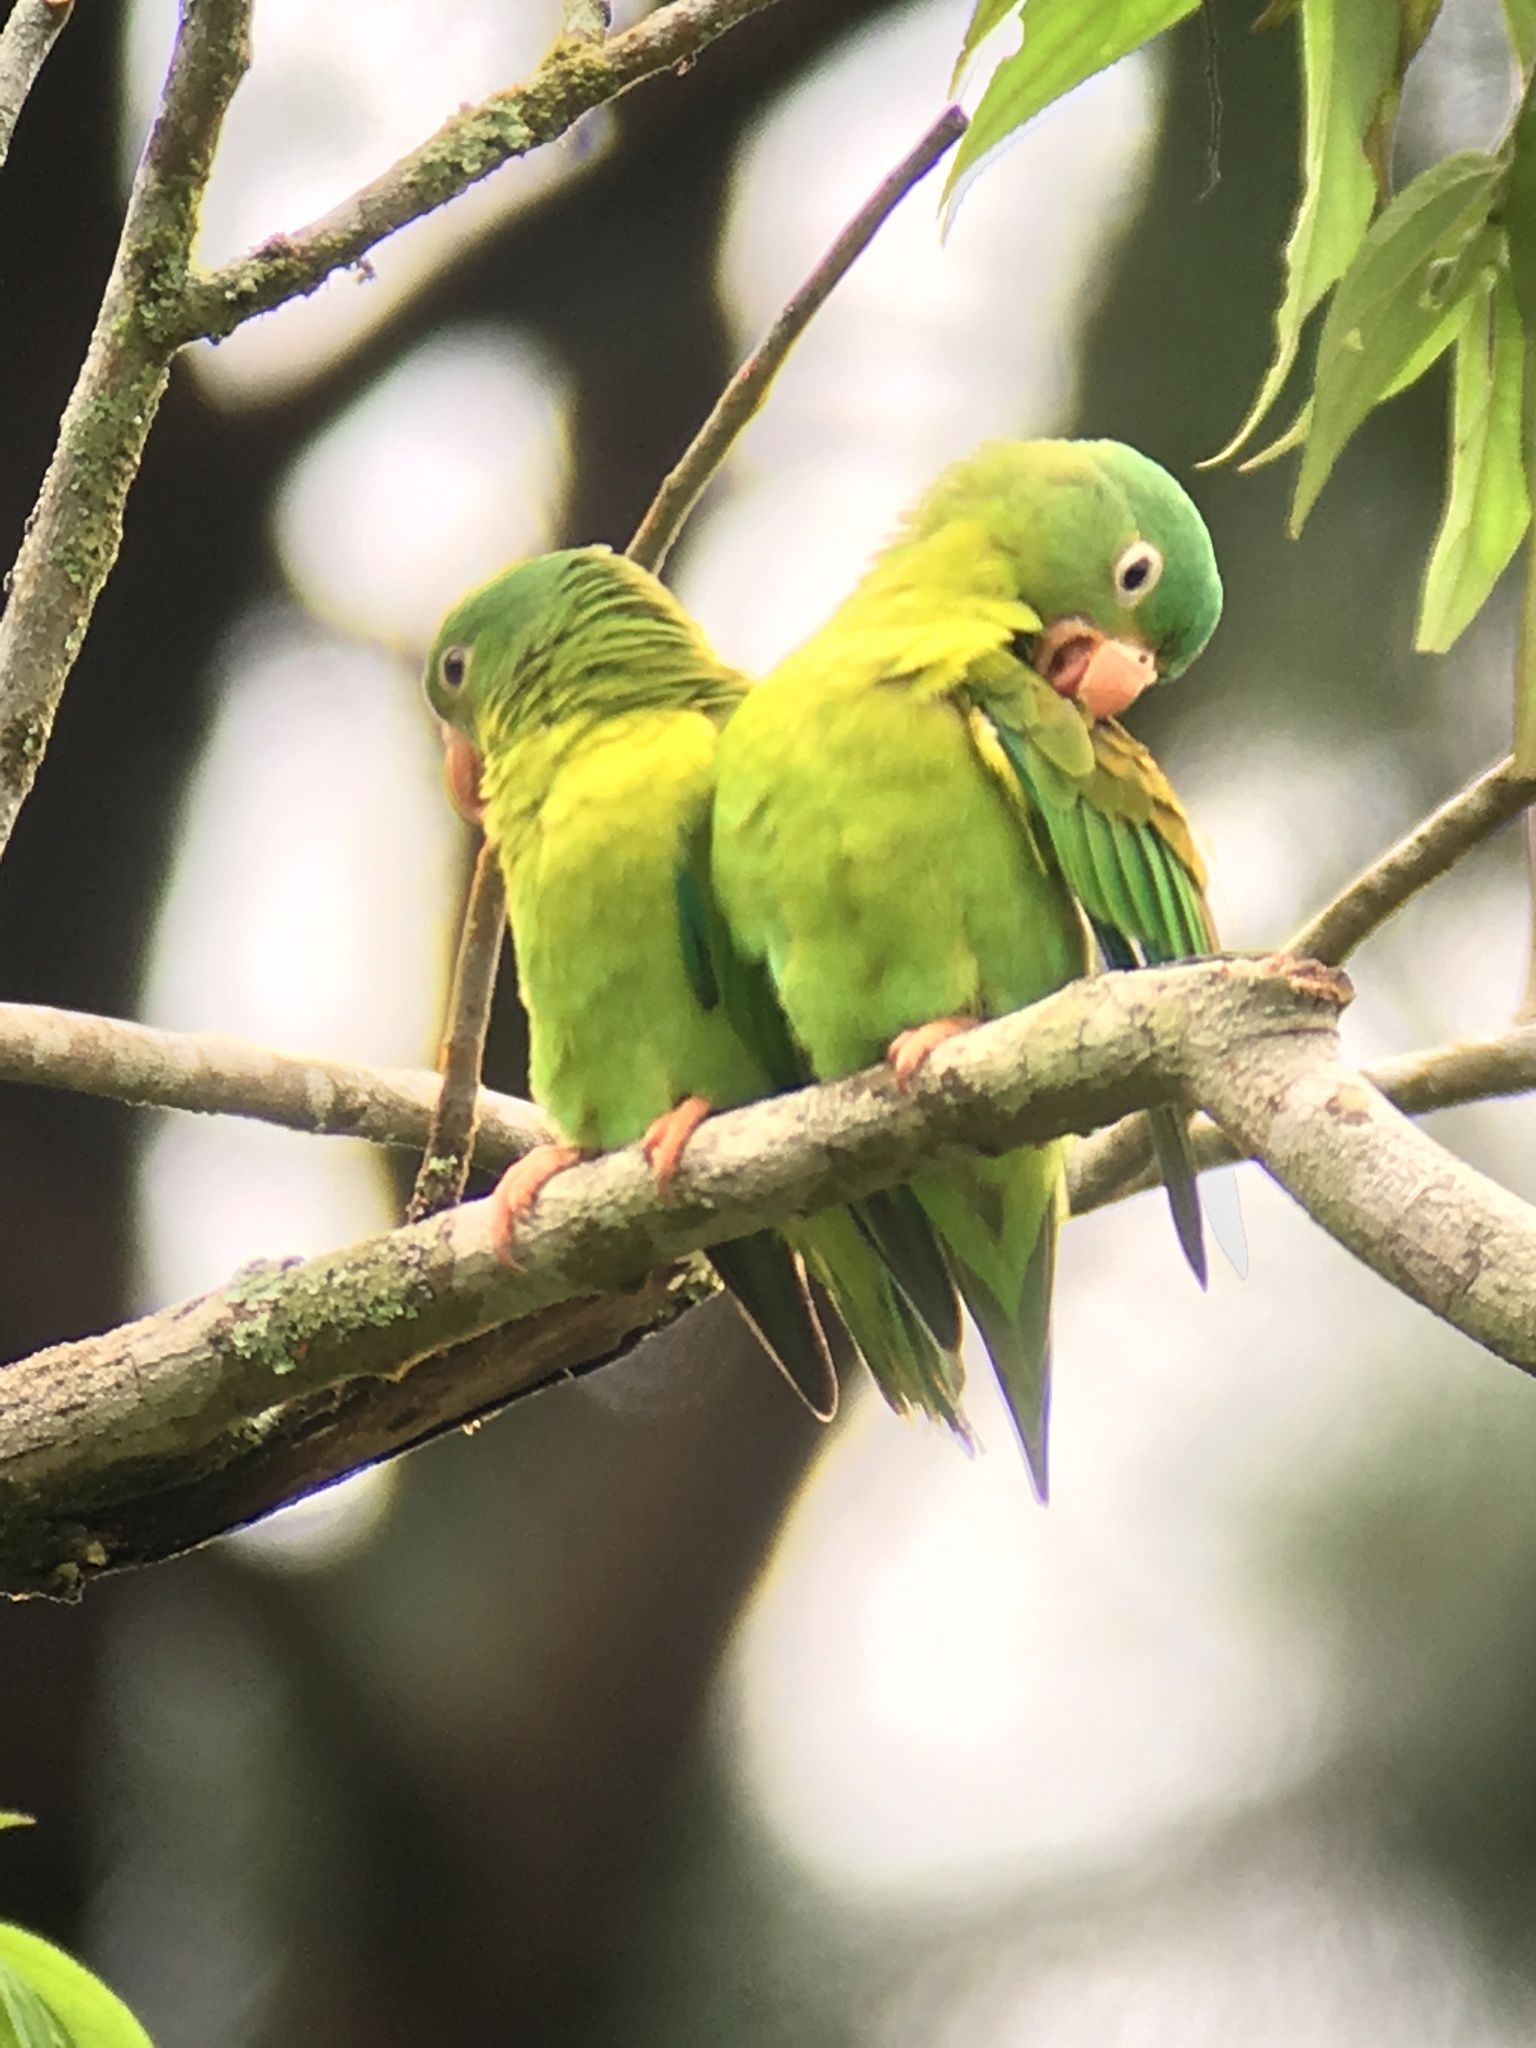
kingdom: Animalia
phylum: Chordata
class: Aves
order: Psittaciformes
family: Psittacidae
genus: Brotogeris
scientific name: Brotogeris jugularis
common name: Orange-chinned parakeet
